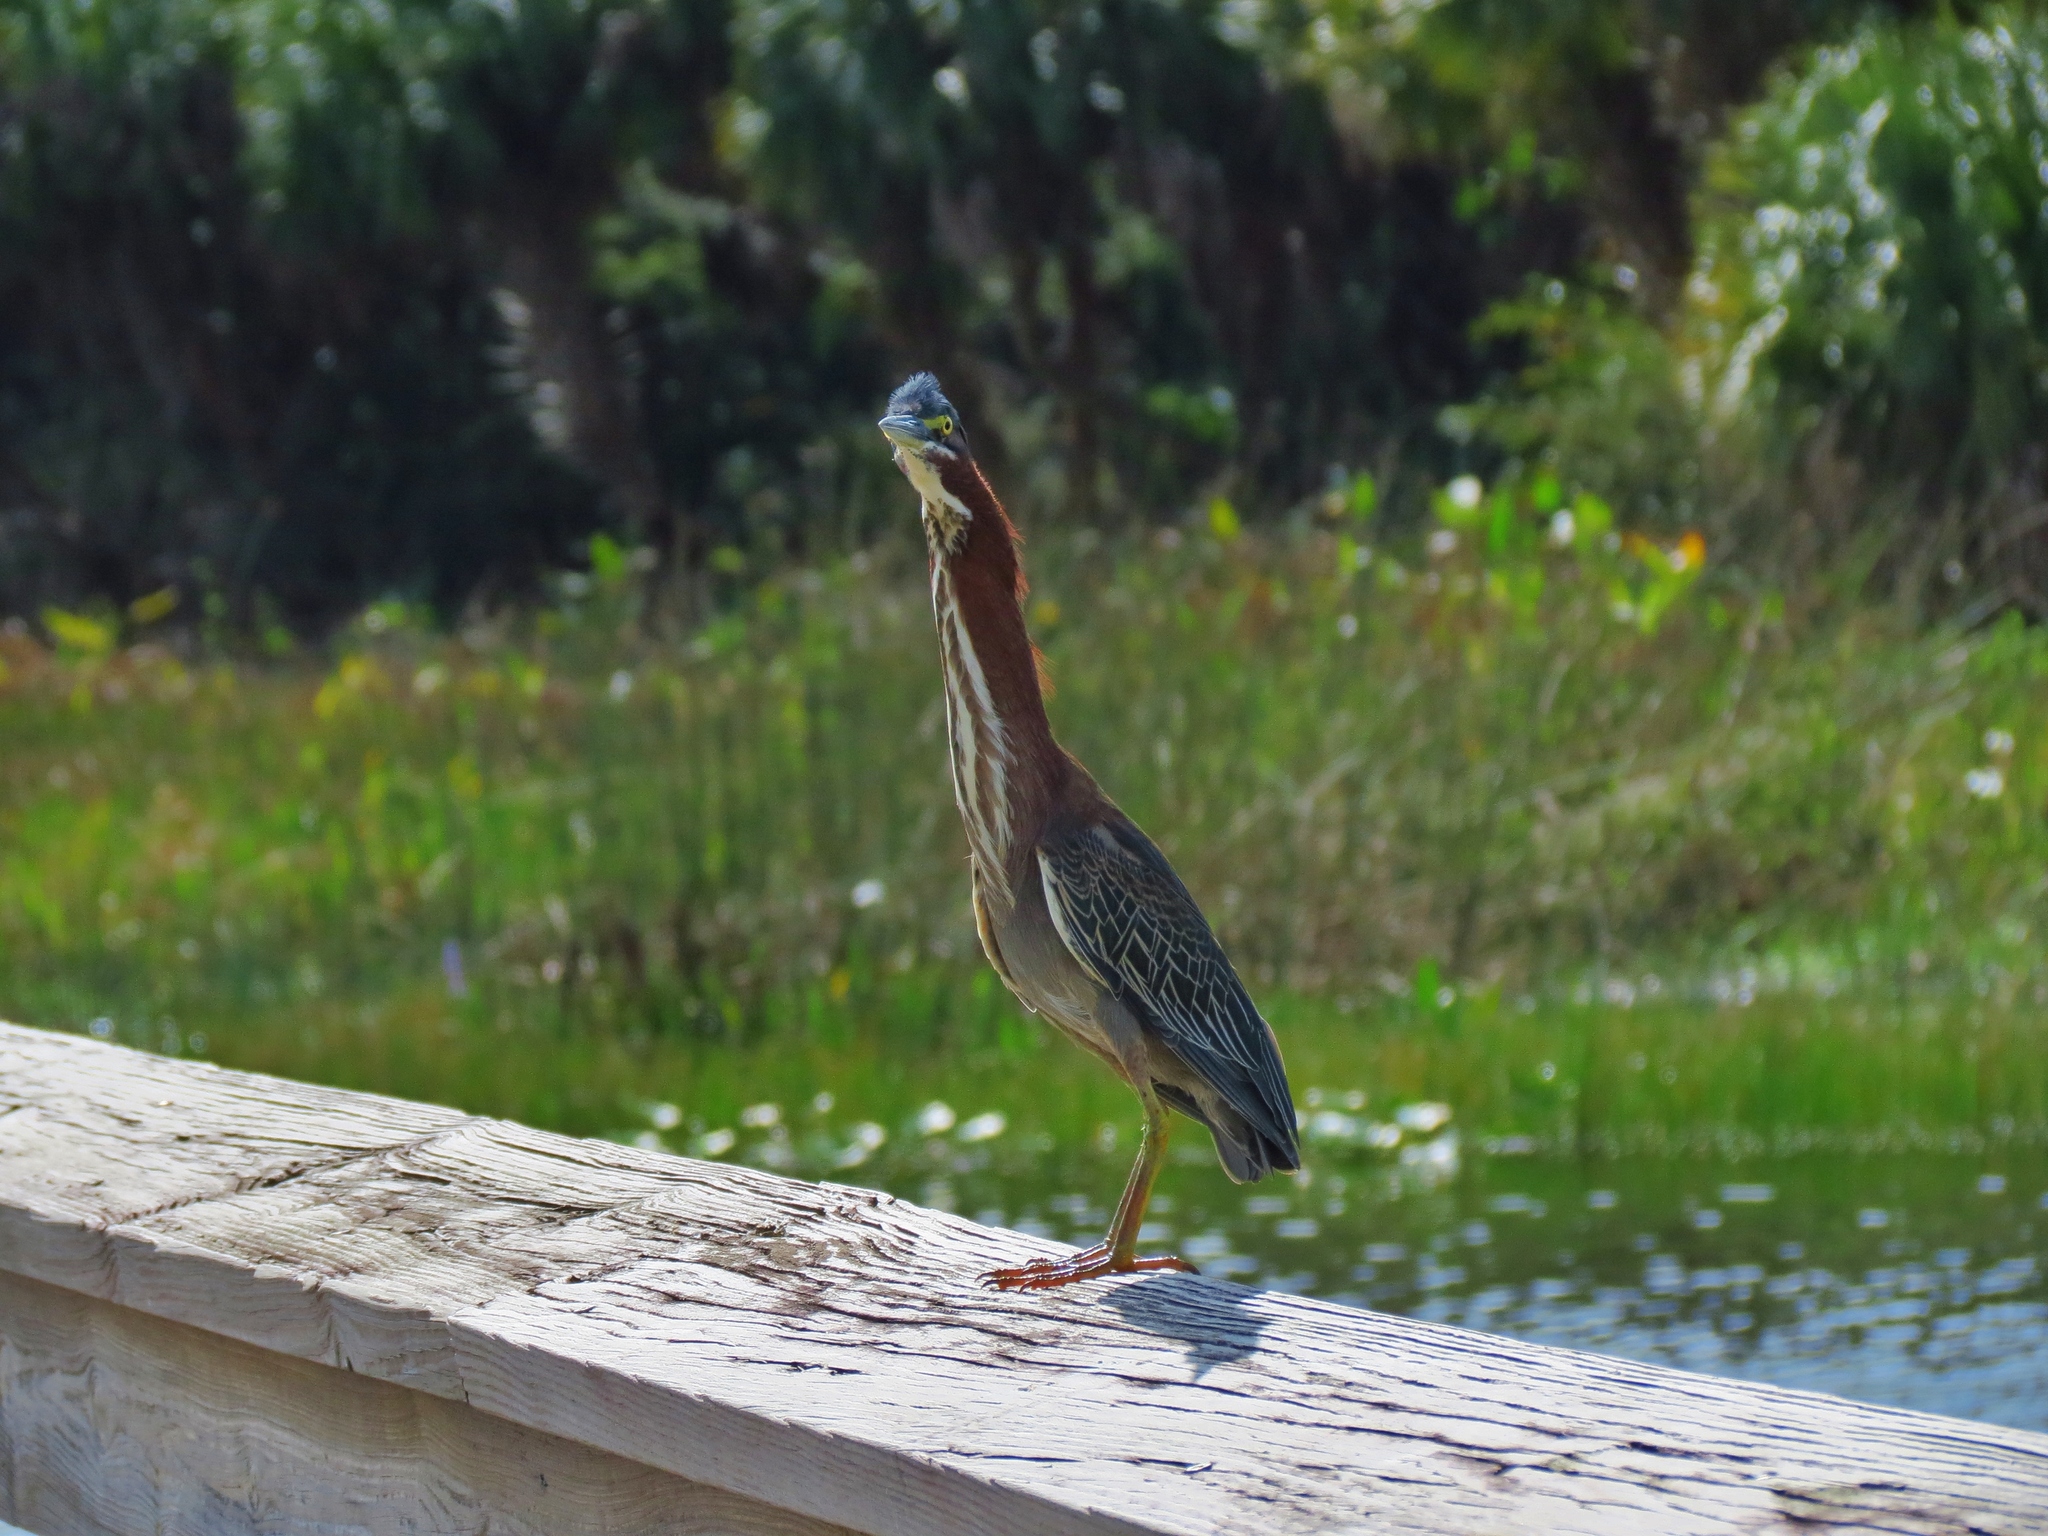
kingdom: Animalia
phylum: Chordata
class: Aves
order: Pelecaniformes
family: Ardeidae
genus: Butorides
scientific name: Butorides virescens
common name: Green heron
